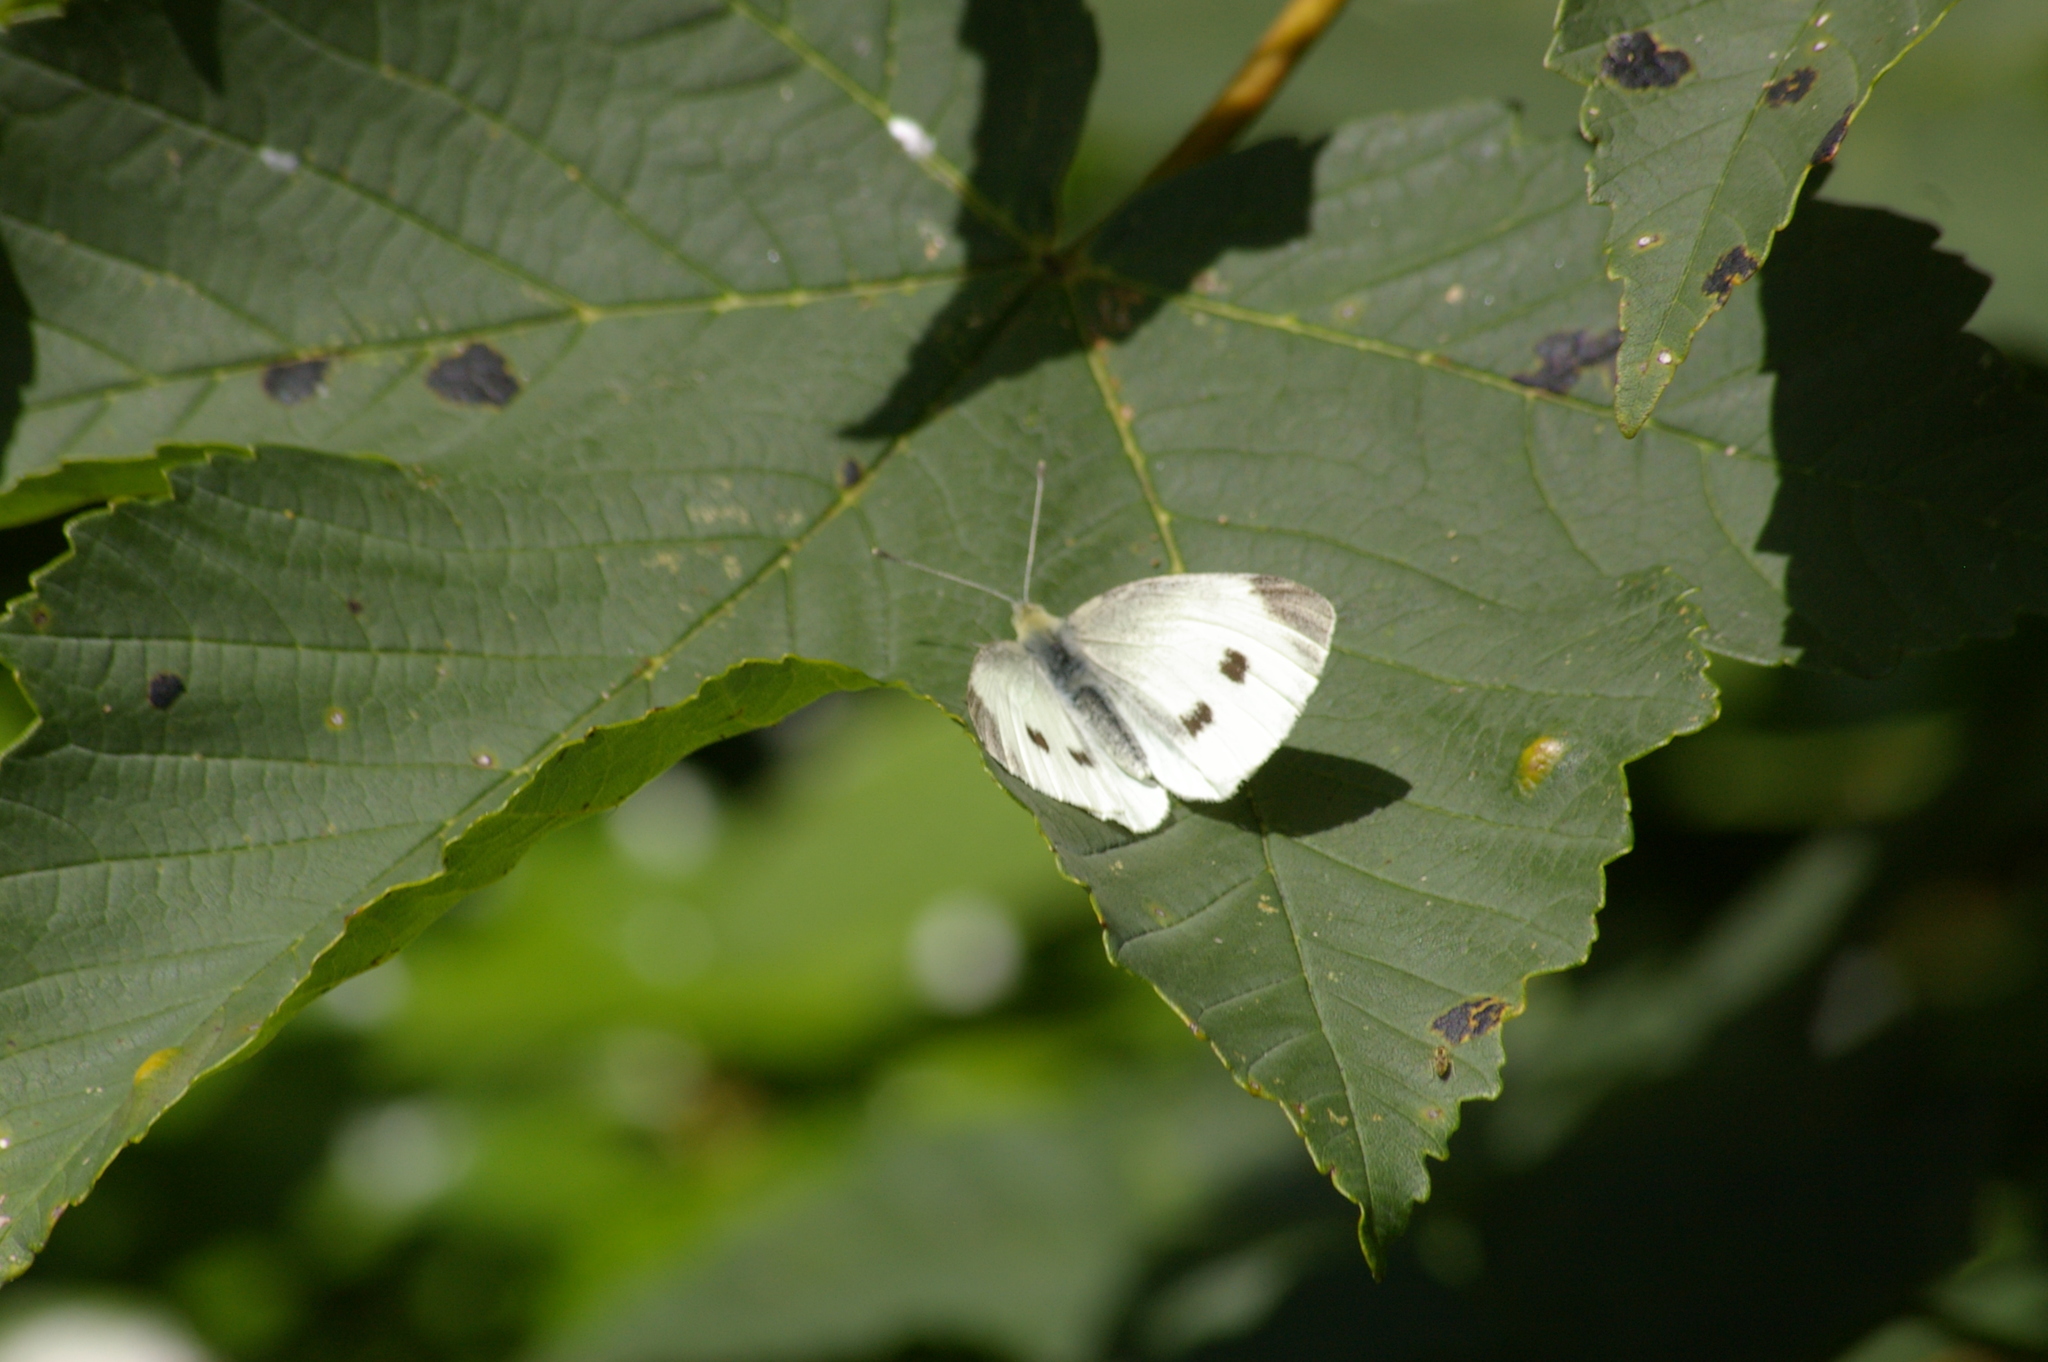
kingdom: Plantae
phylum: Tracheophyta
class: Magnoliopsida
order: Sapindales
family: Sapindaceae
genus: Acer
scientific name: Acer pseudoplatanus
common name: Sycamore
